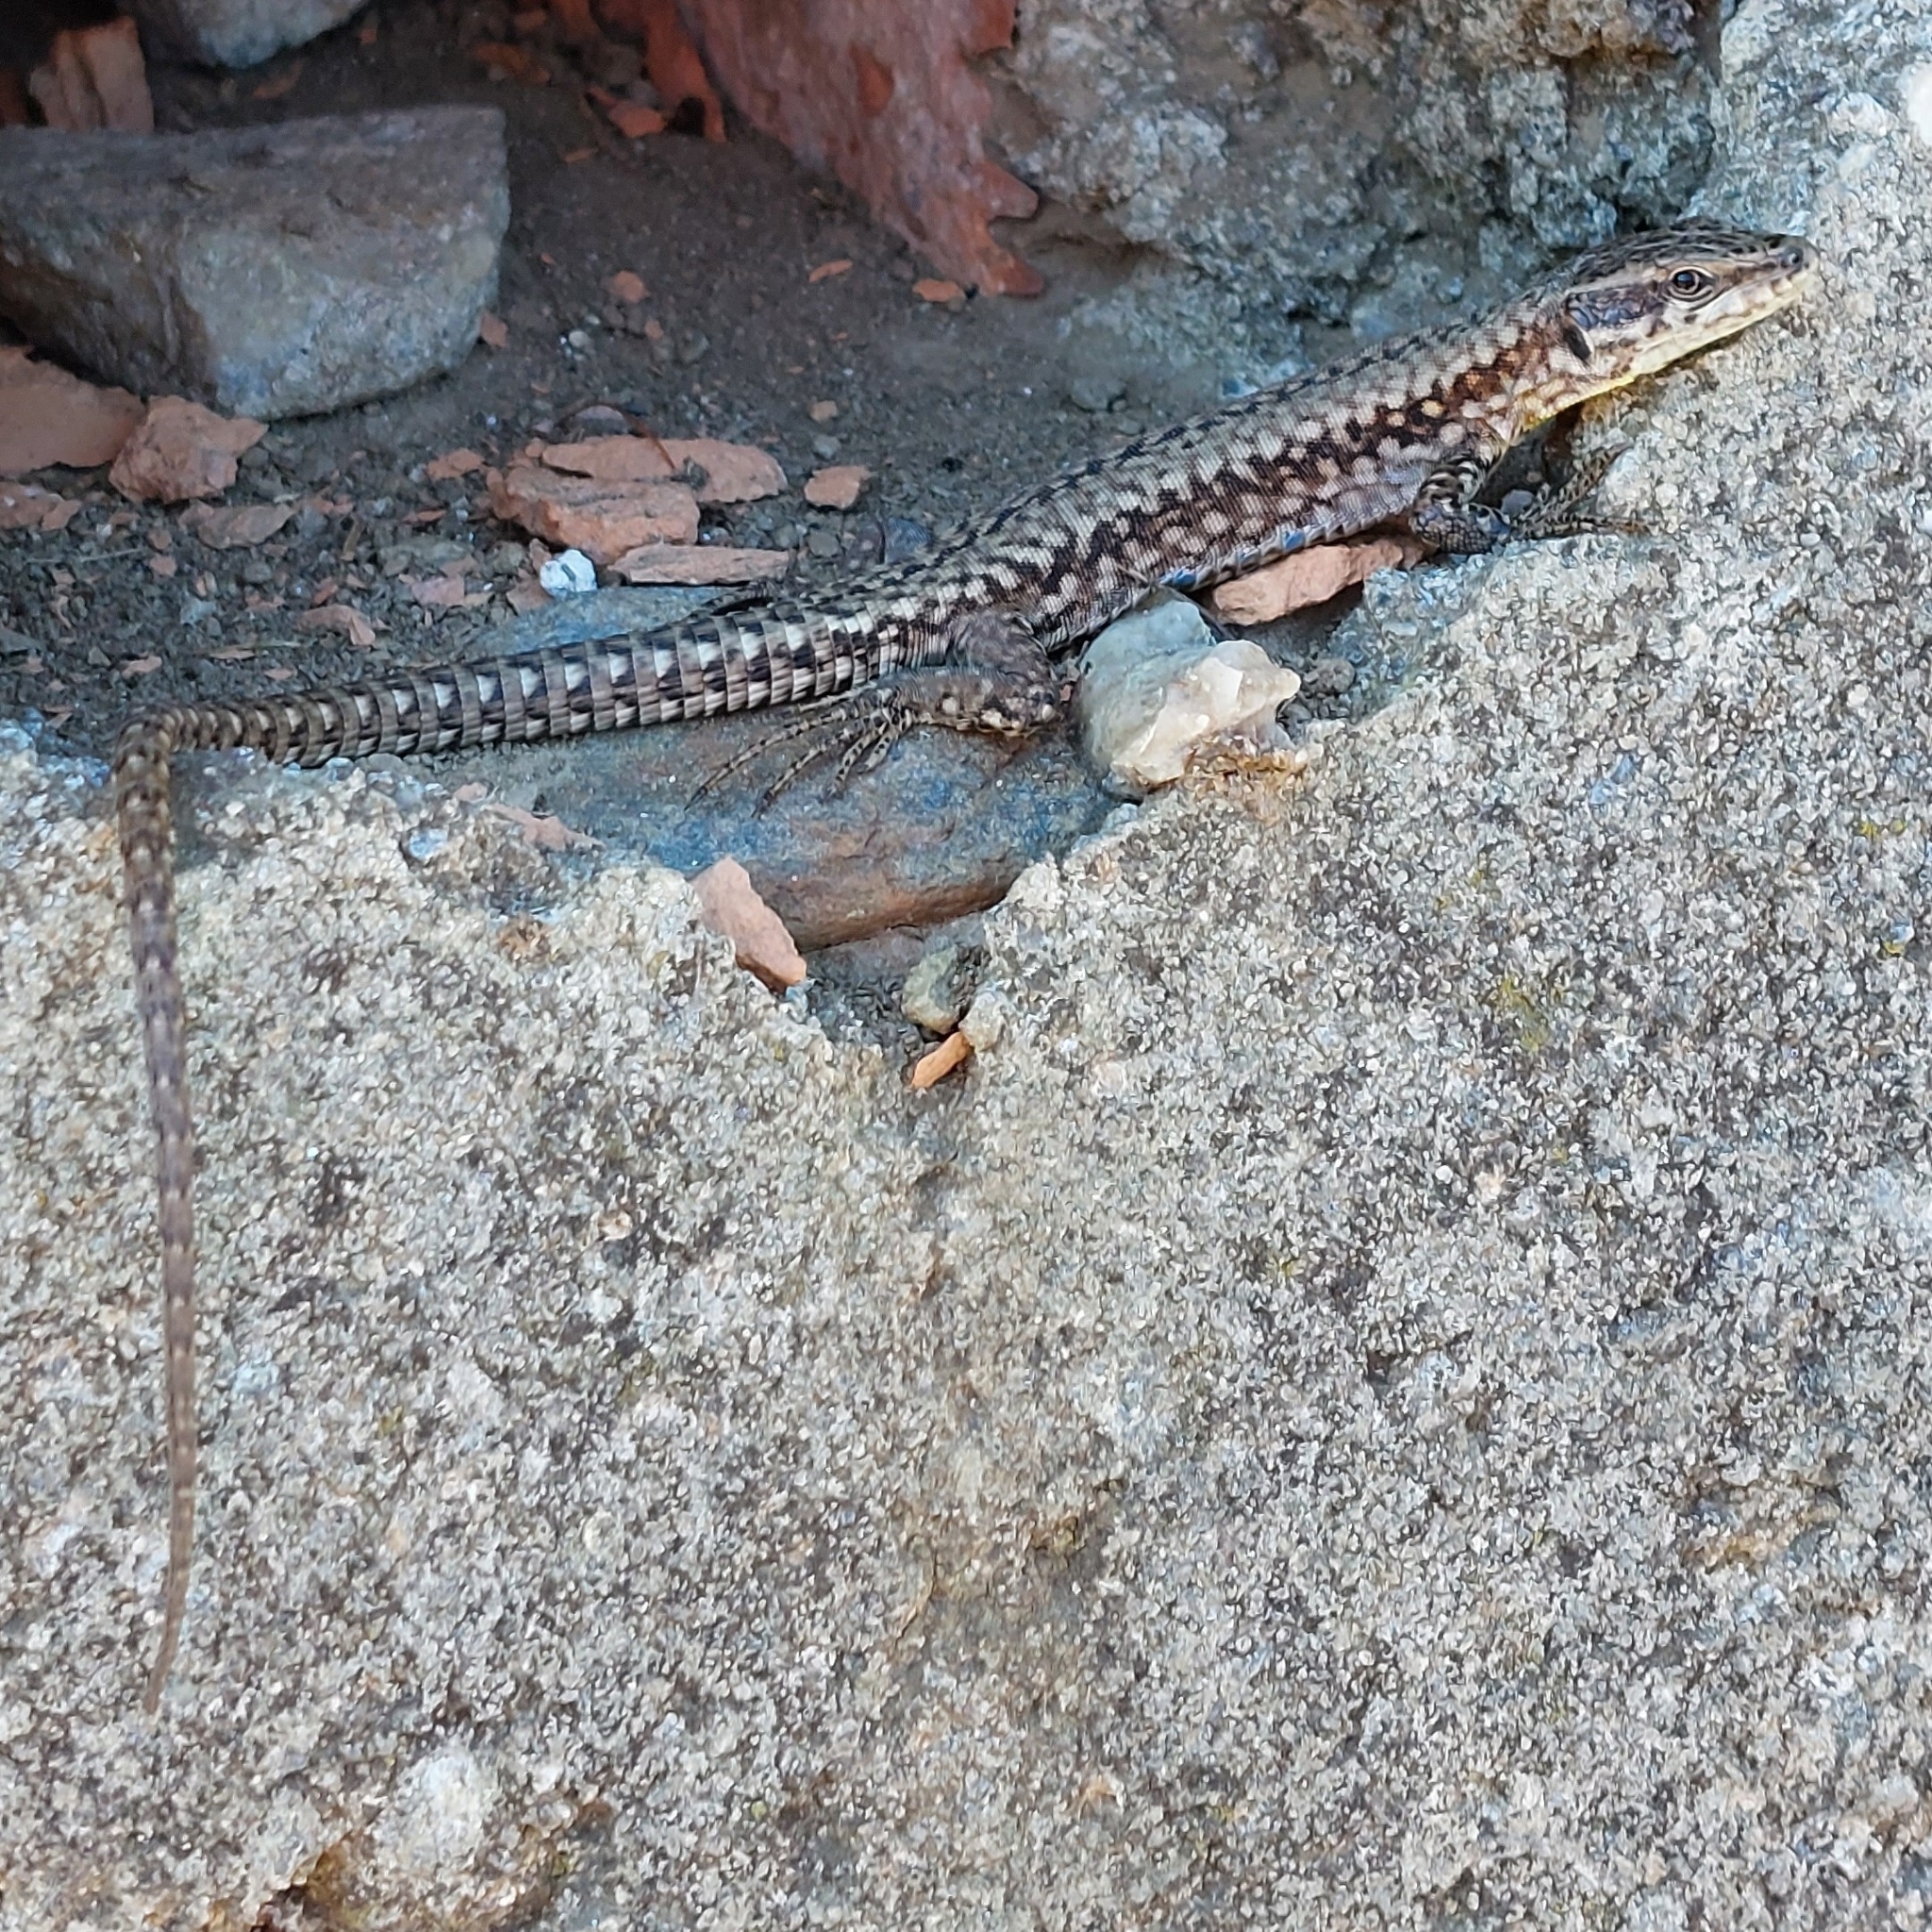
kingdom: Animalia
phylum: Chordata
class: Squamata
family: Lacertidae
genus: Podarcis
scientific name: Podarcis muralis
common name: Common wall lizard
